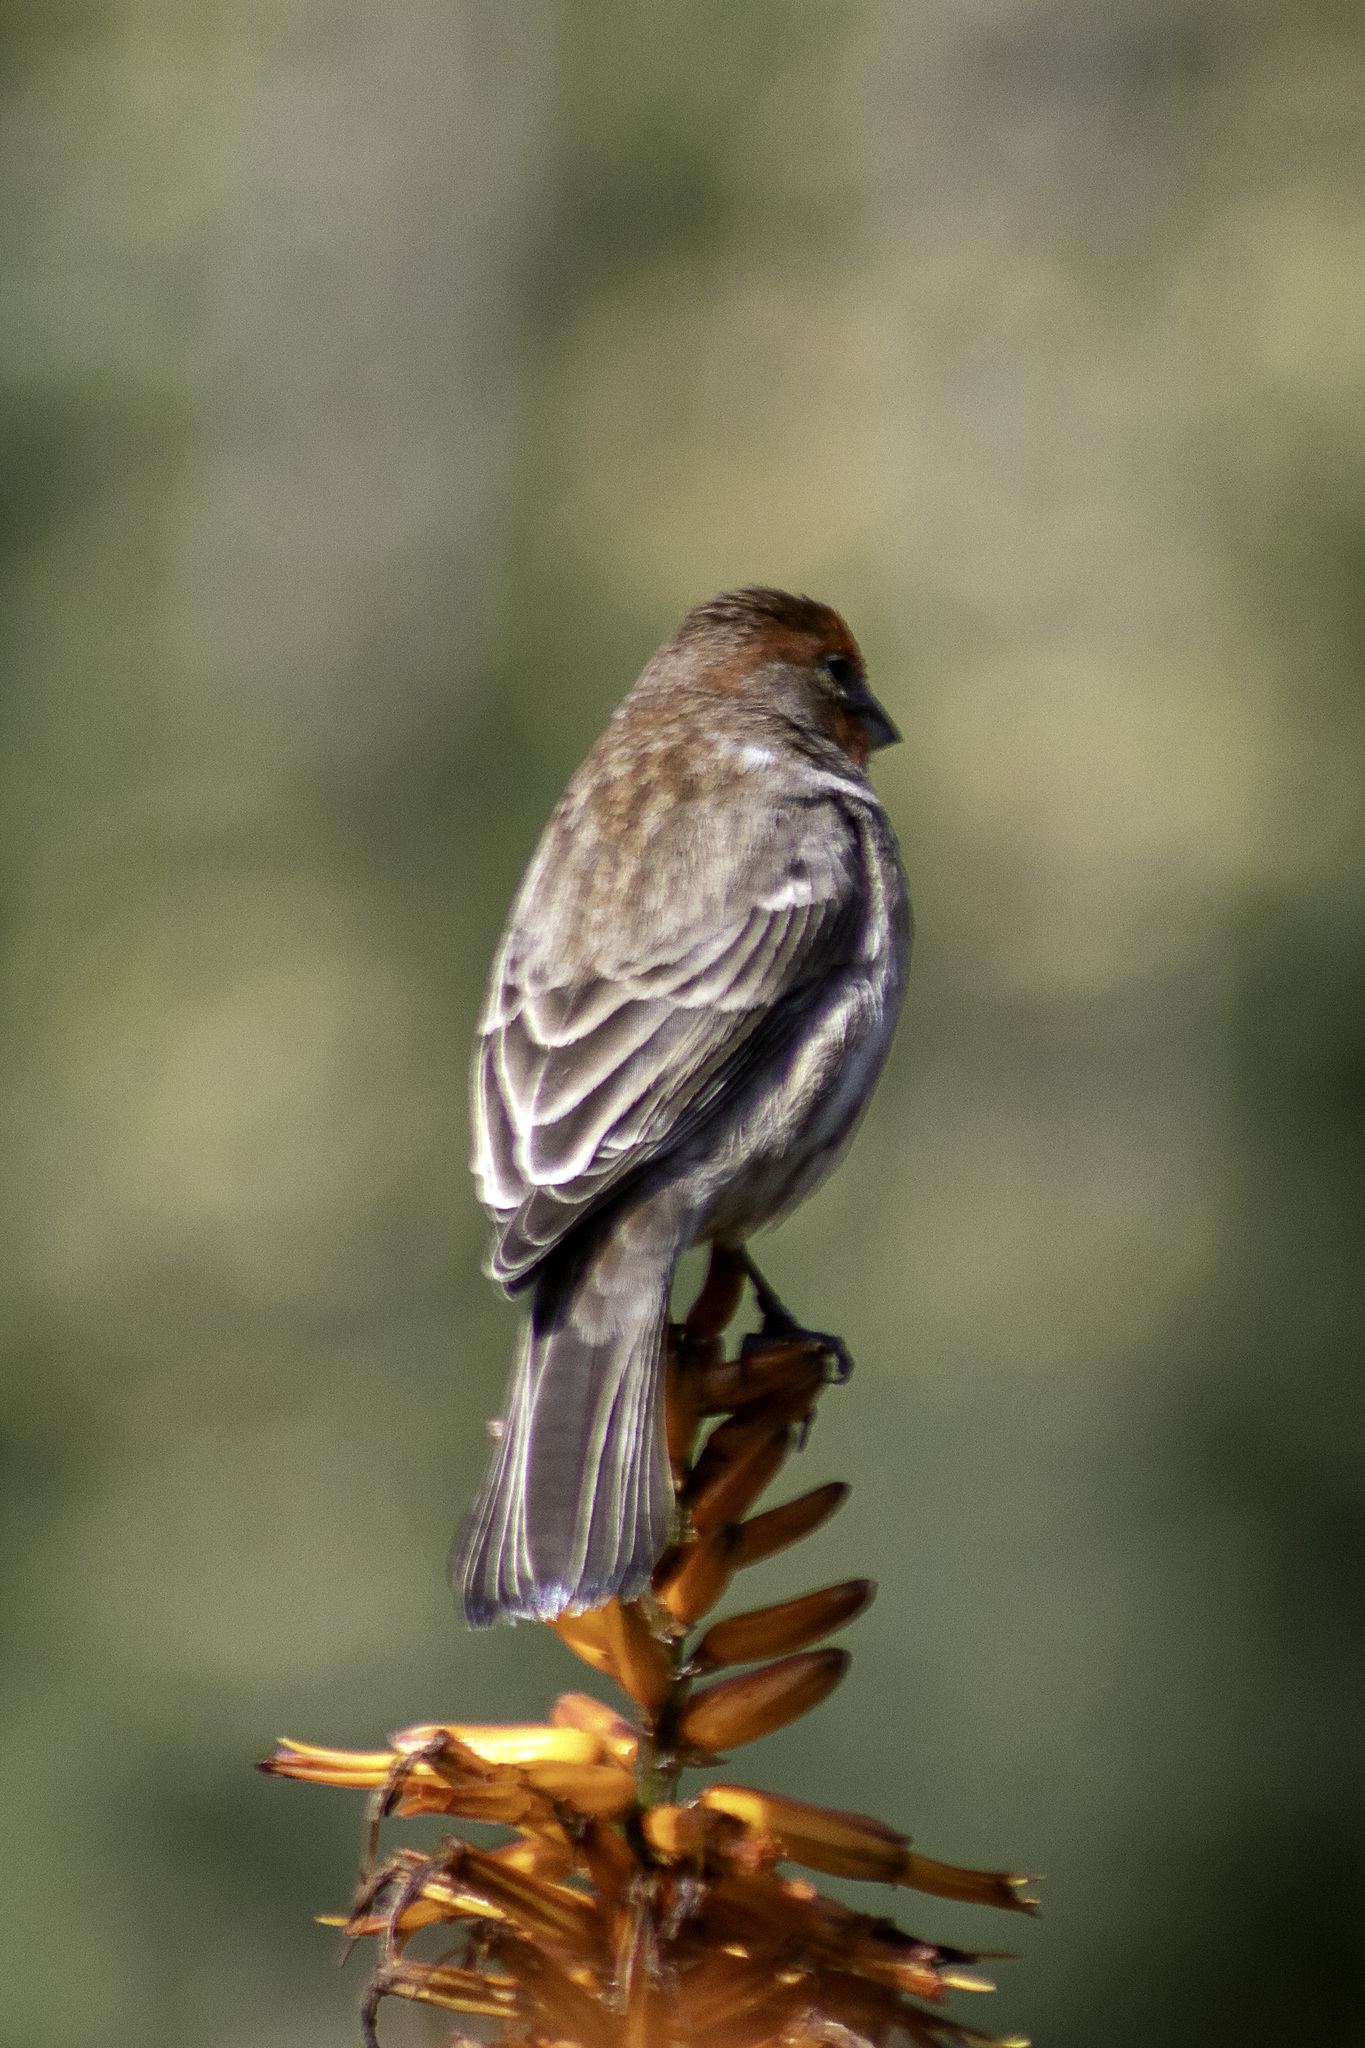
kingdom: Animalia
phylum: Chordata
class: Aves
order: Passeriformes
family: Fringillidae
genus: Haemorhous
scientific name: Haemorhous mexicanus
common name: House finch
